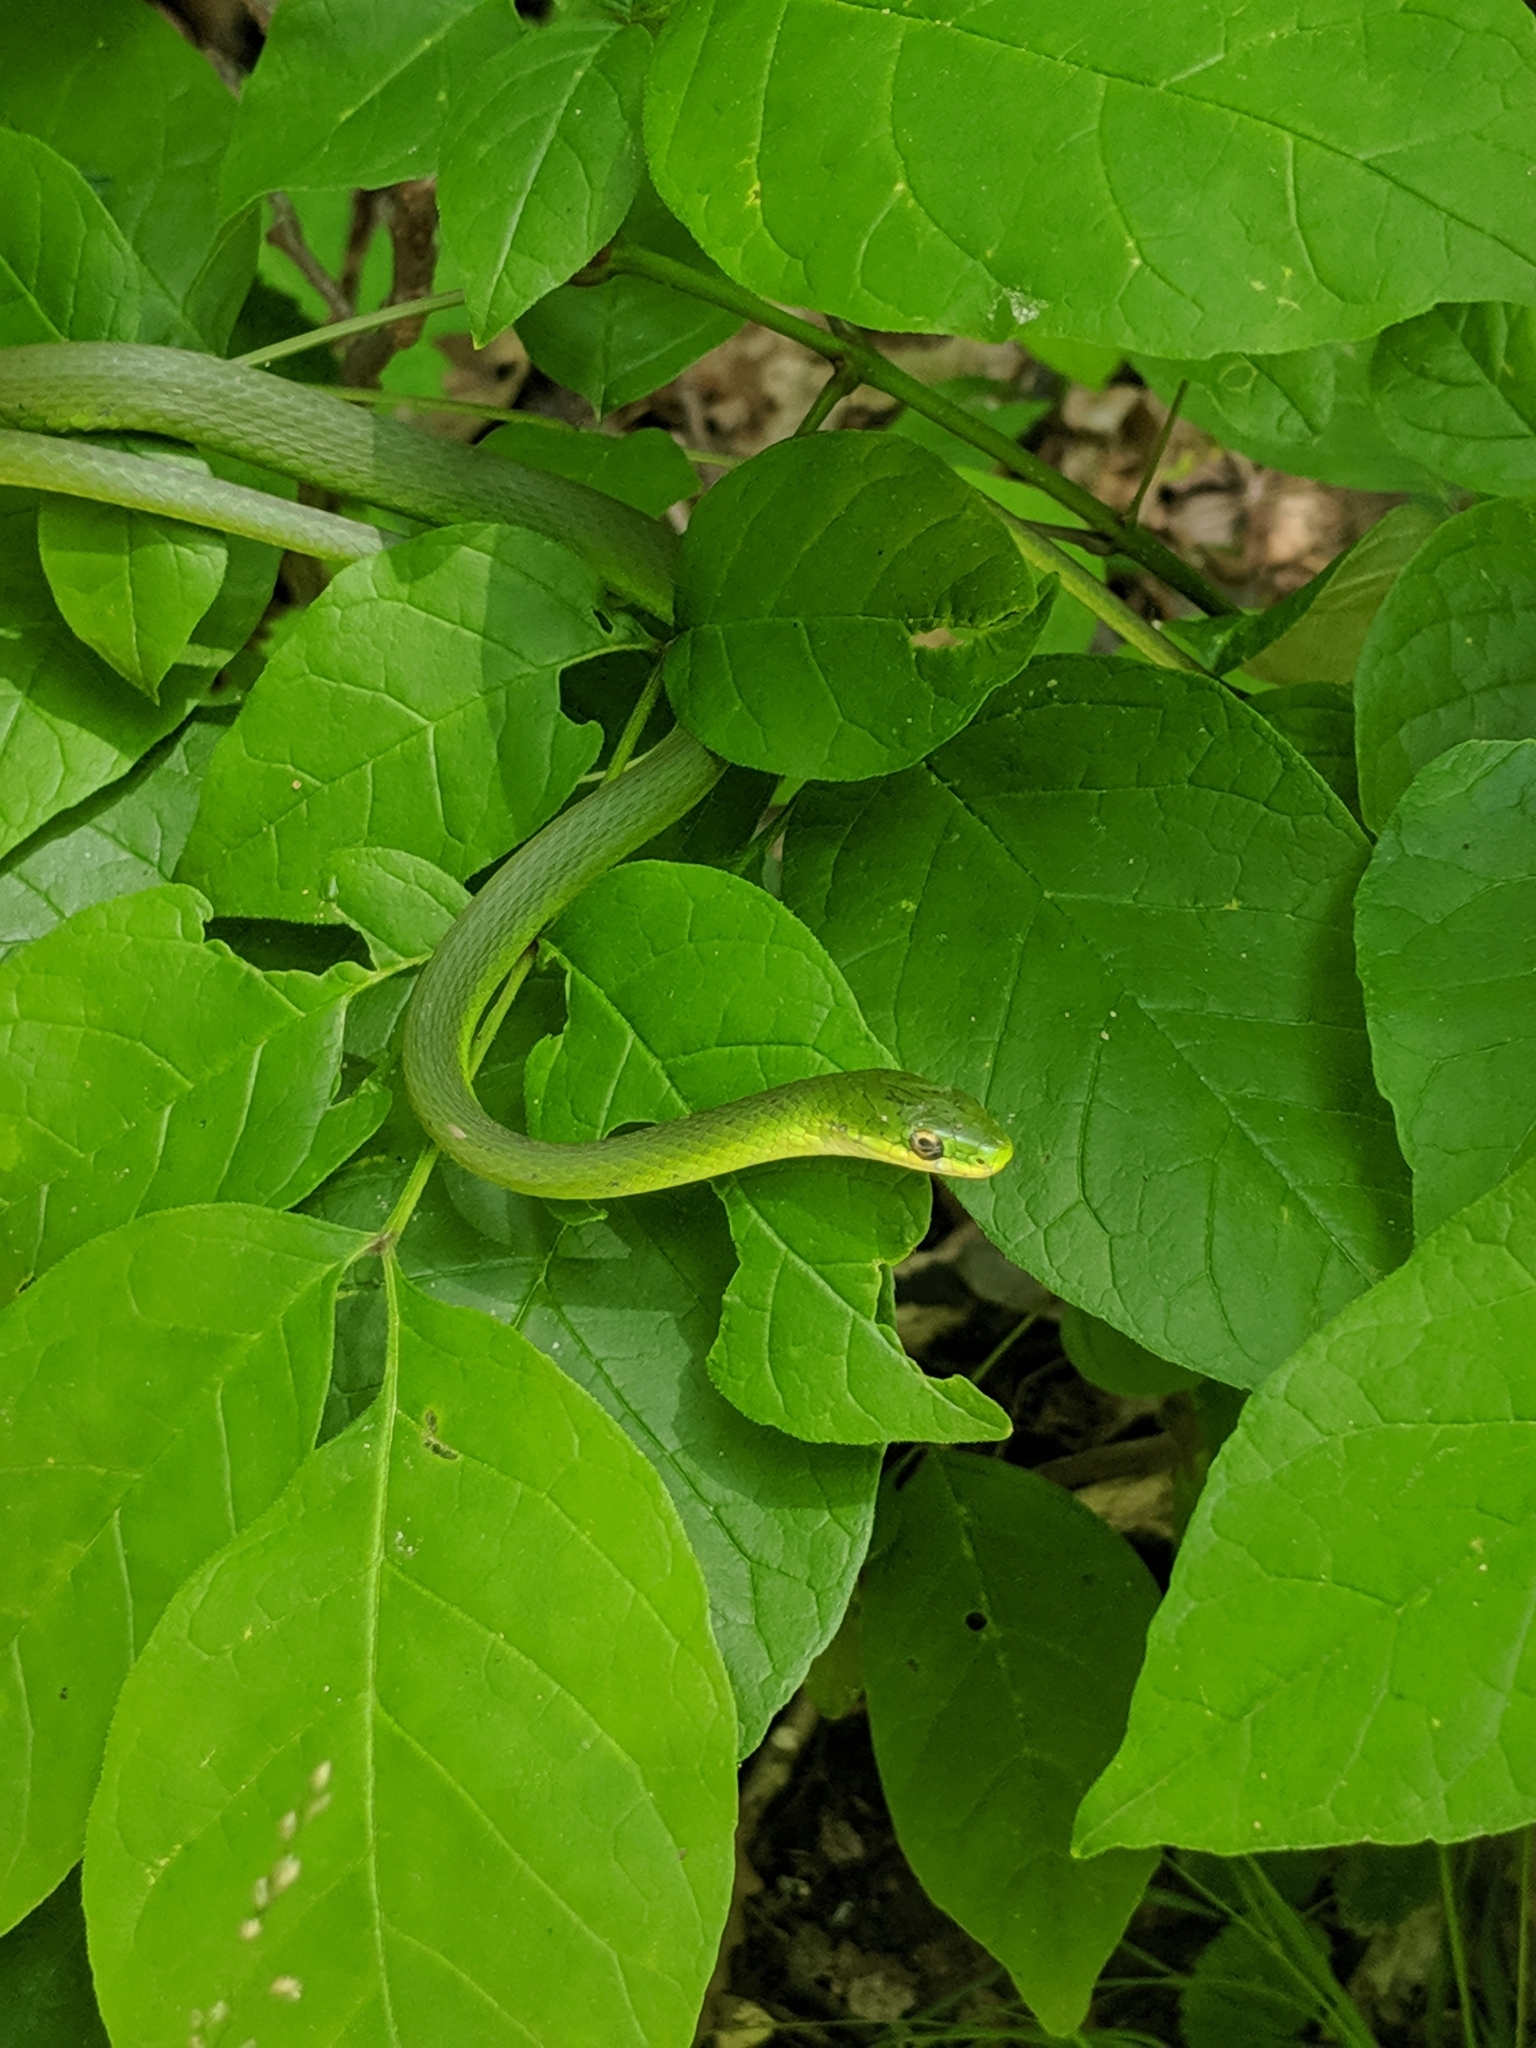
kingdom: Animalia
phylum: Chordata
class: Squamata
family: Colubridae
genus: Opheodrys
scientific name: Opheodrys aestivus
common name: Rough greensnake
